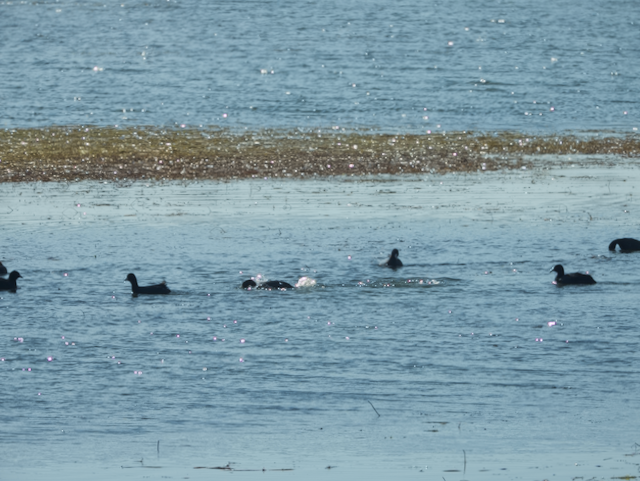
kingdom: Animalia
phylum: Chordata
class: Aves
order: Gruiformes
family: Rallidae
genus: Fulica
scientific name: Fulica americana
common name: American coot
